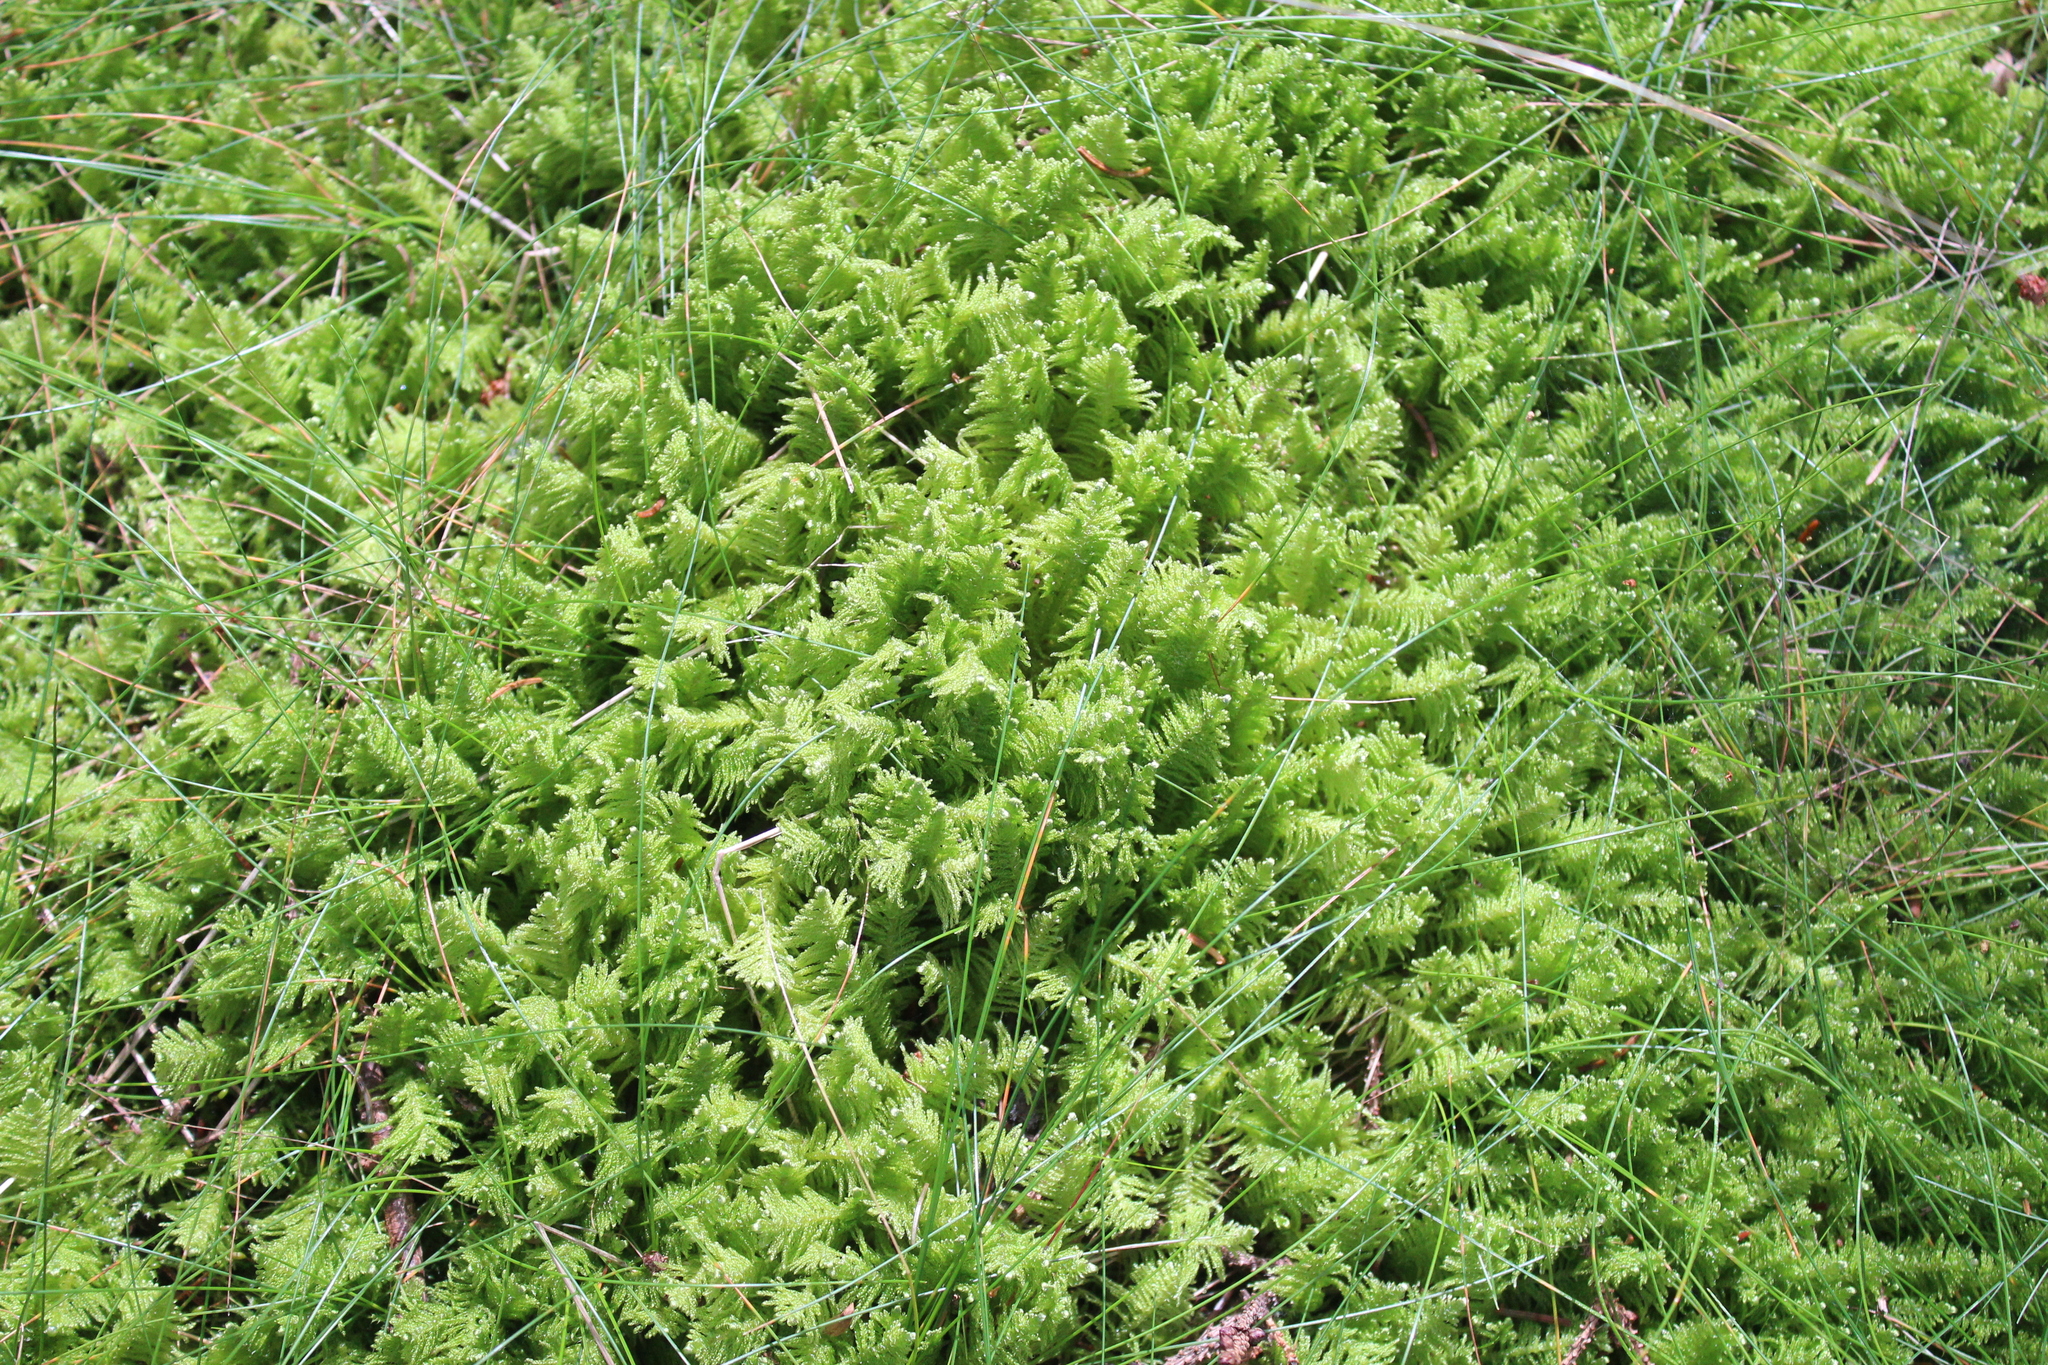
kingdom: Plantae
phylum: Bryophyta
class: Bryopsida
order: Hypnales
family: Pylaisiaceae
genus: Ptilium
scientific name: Ptilium crista-castrensis
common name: Knight's plume moss
